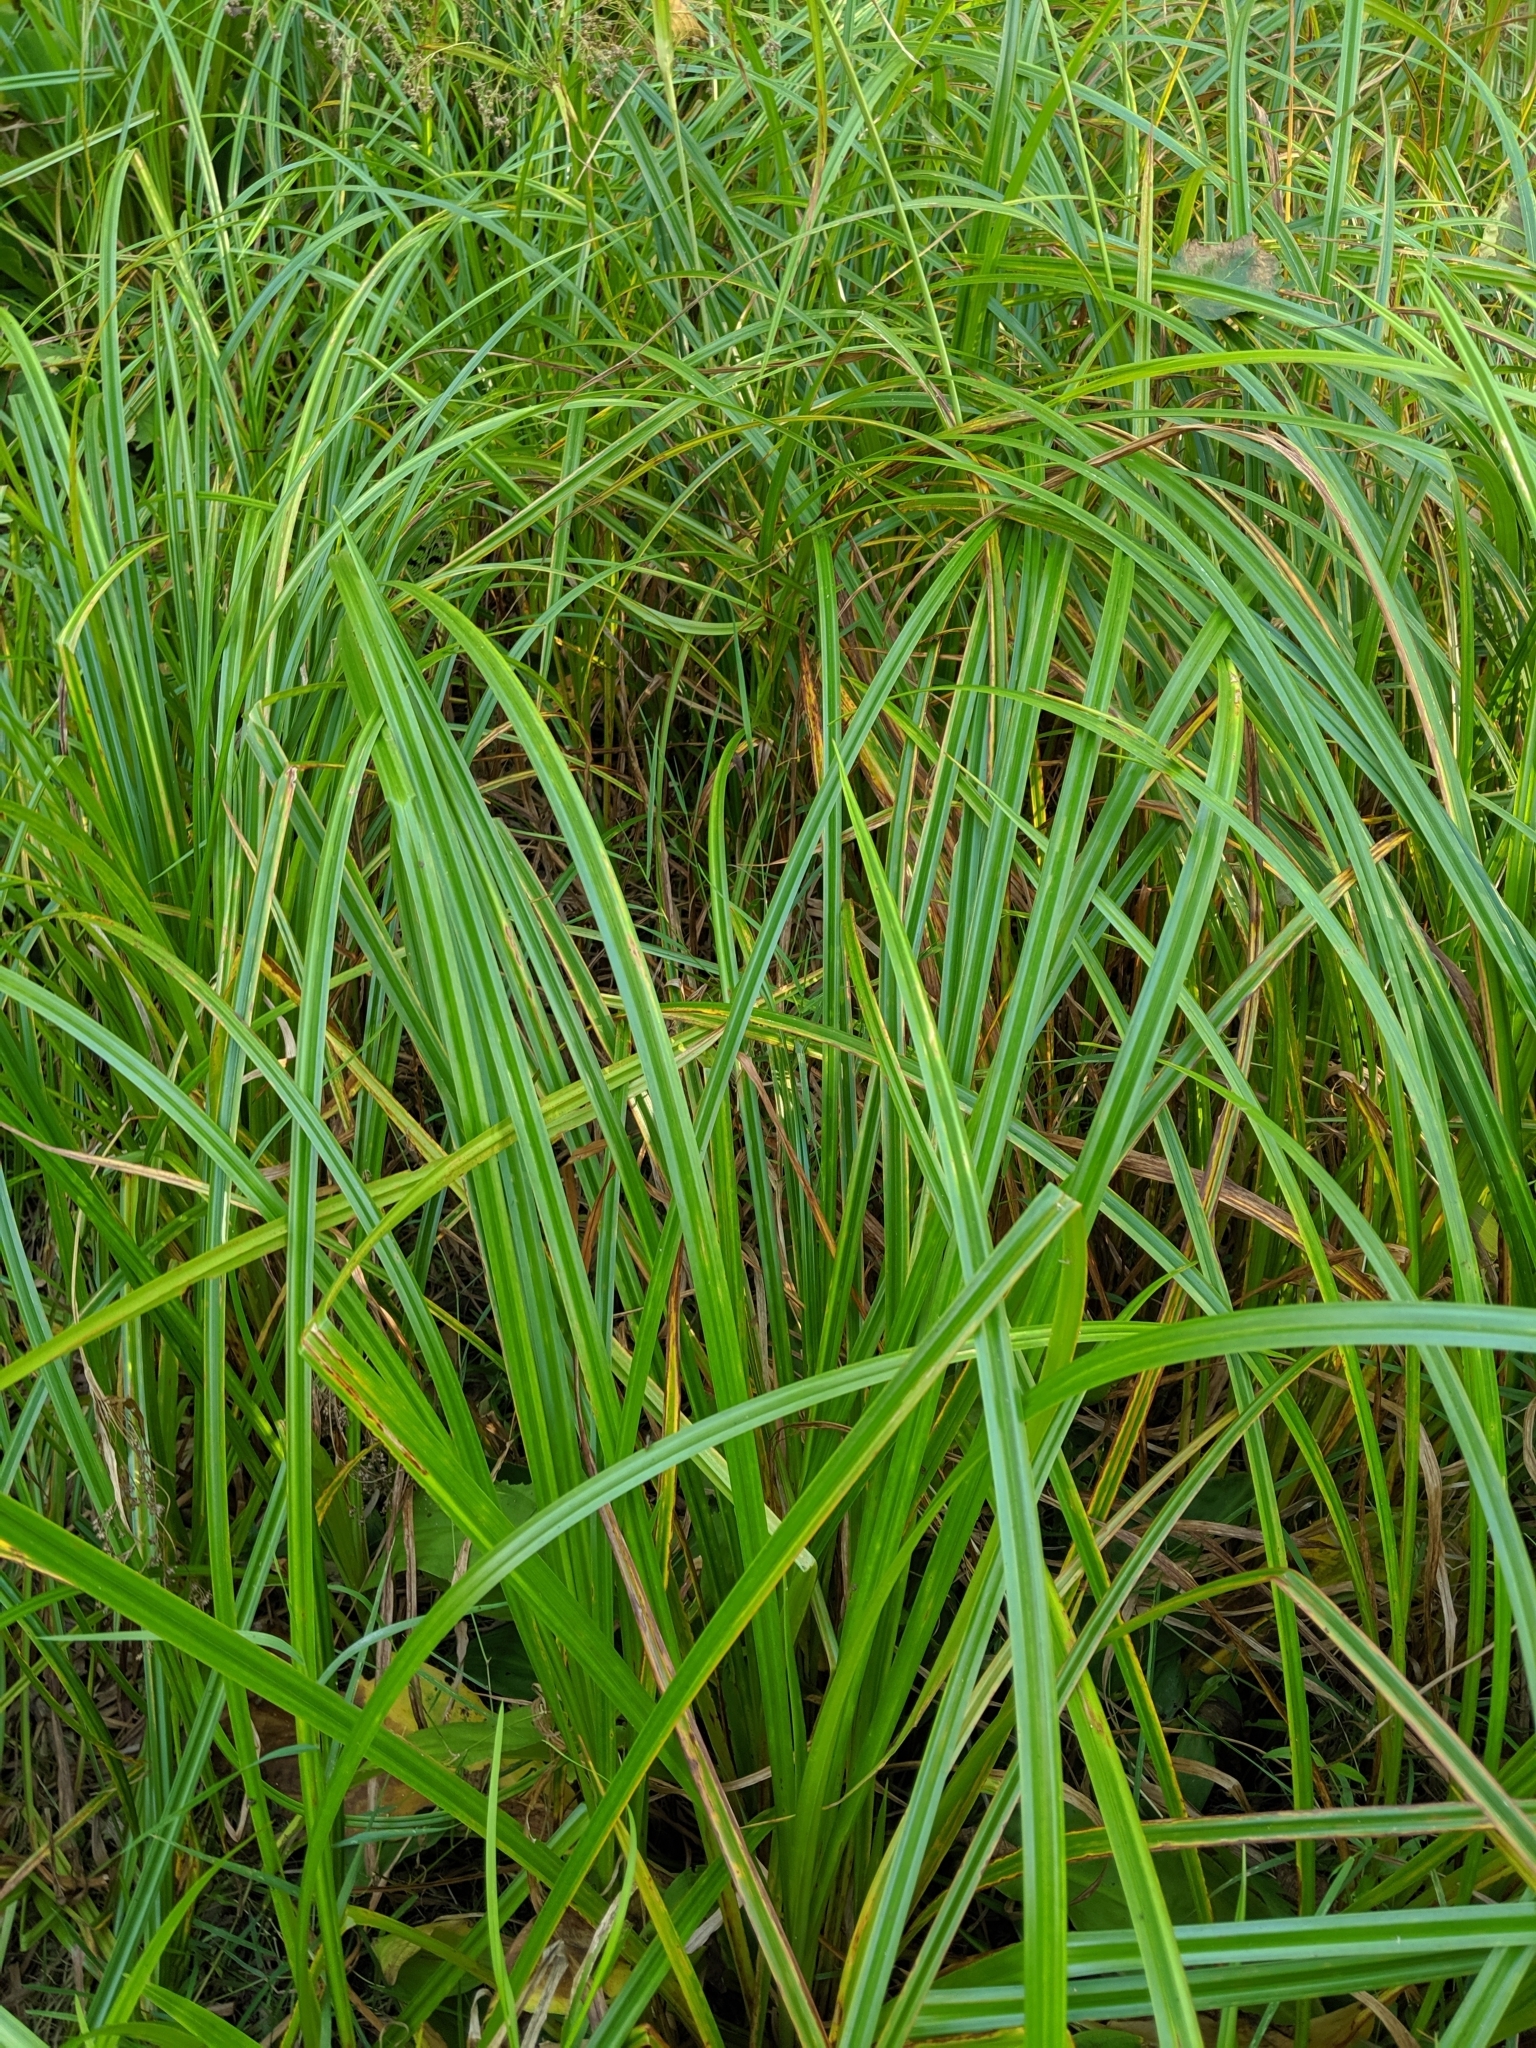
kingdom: Plantae
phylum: Tracheophyta
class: Liliopsida
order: Poales
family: Cyperaceae
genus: Scirpus
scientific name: Scirpus microcarpus
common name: Panicled bulrush
